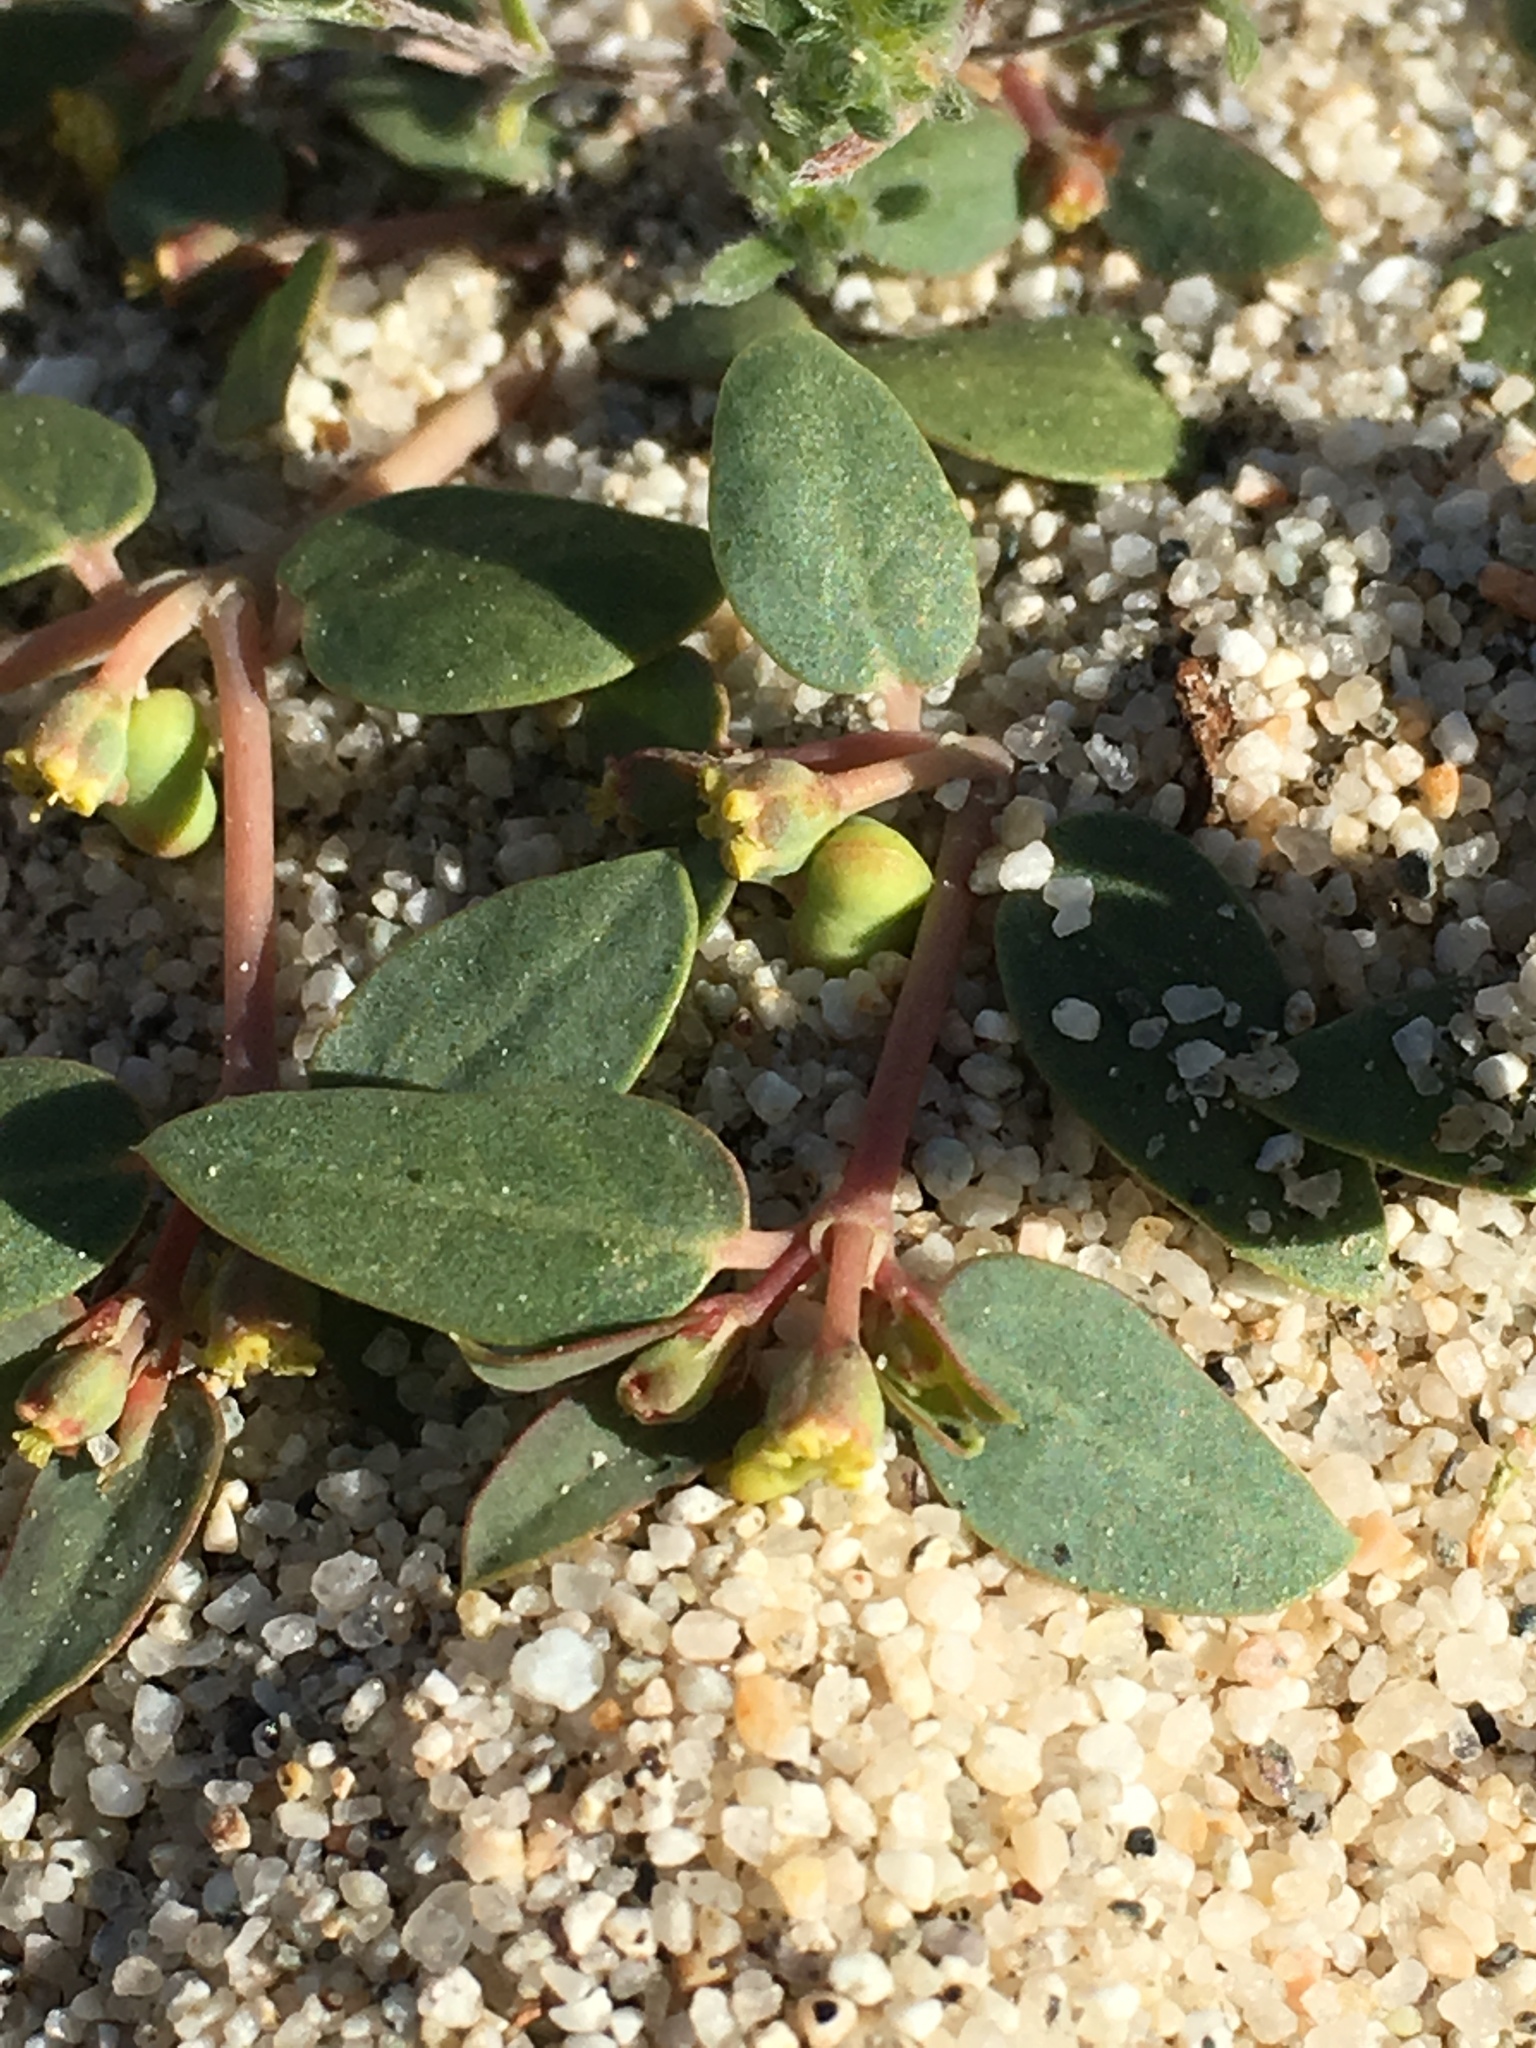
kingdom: Plantae
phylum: Tracheophyta
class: Magnoliopsida
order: Malpighiales
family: Euphorbiaceae
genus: Euphorbia
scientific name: Euphorbia ocellata
